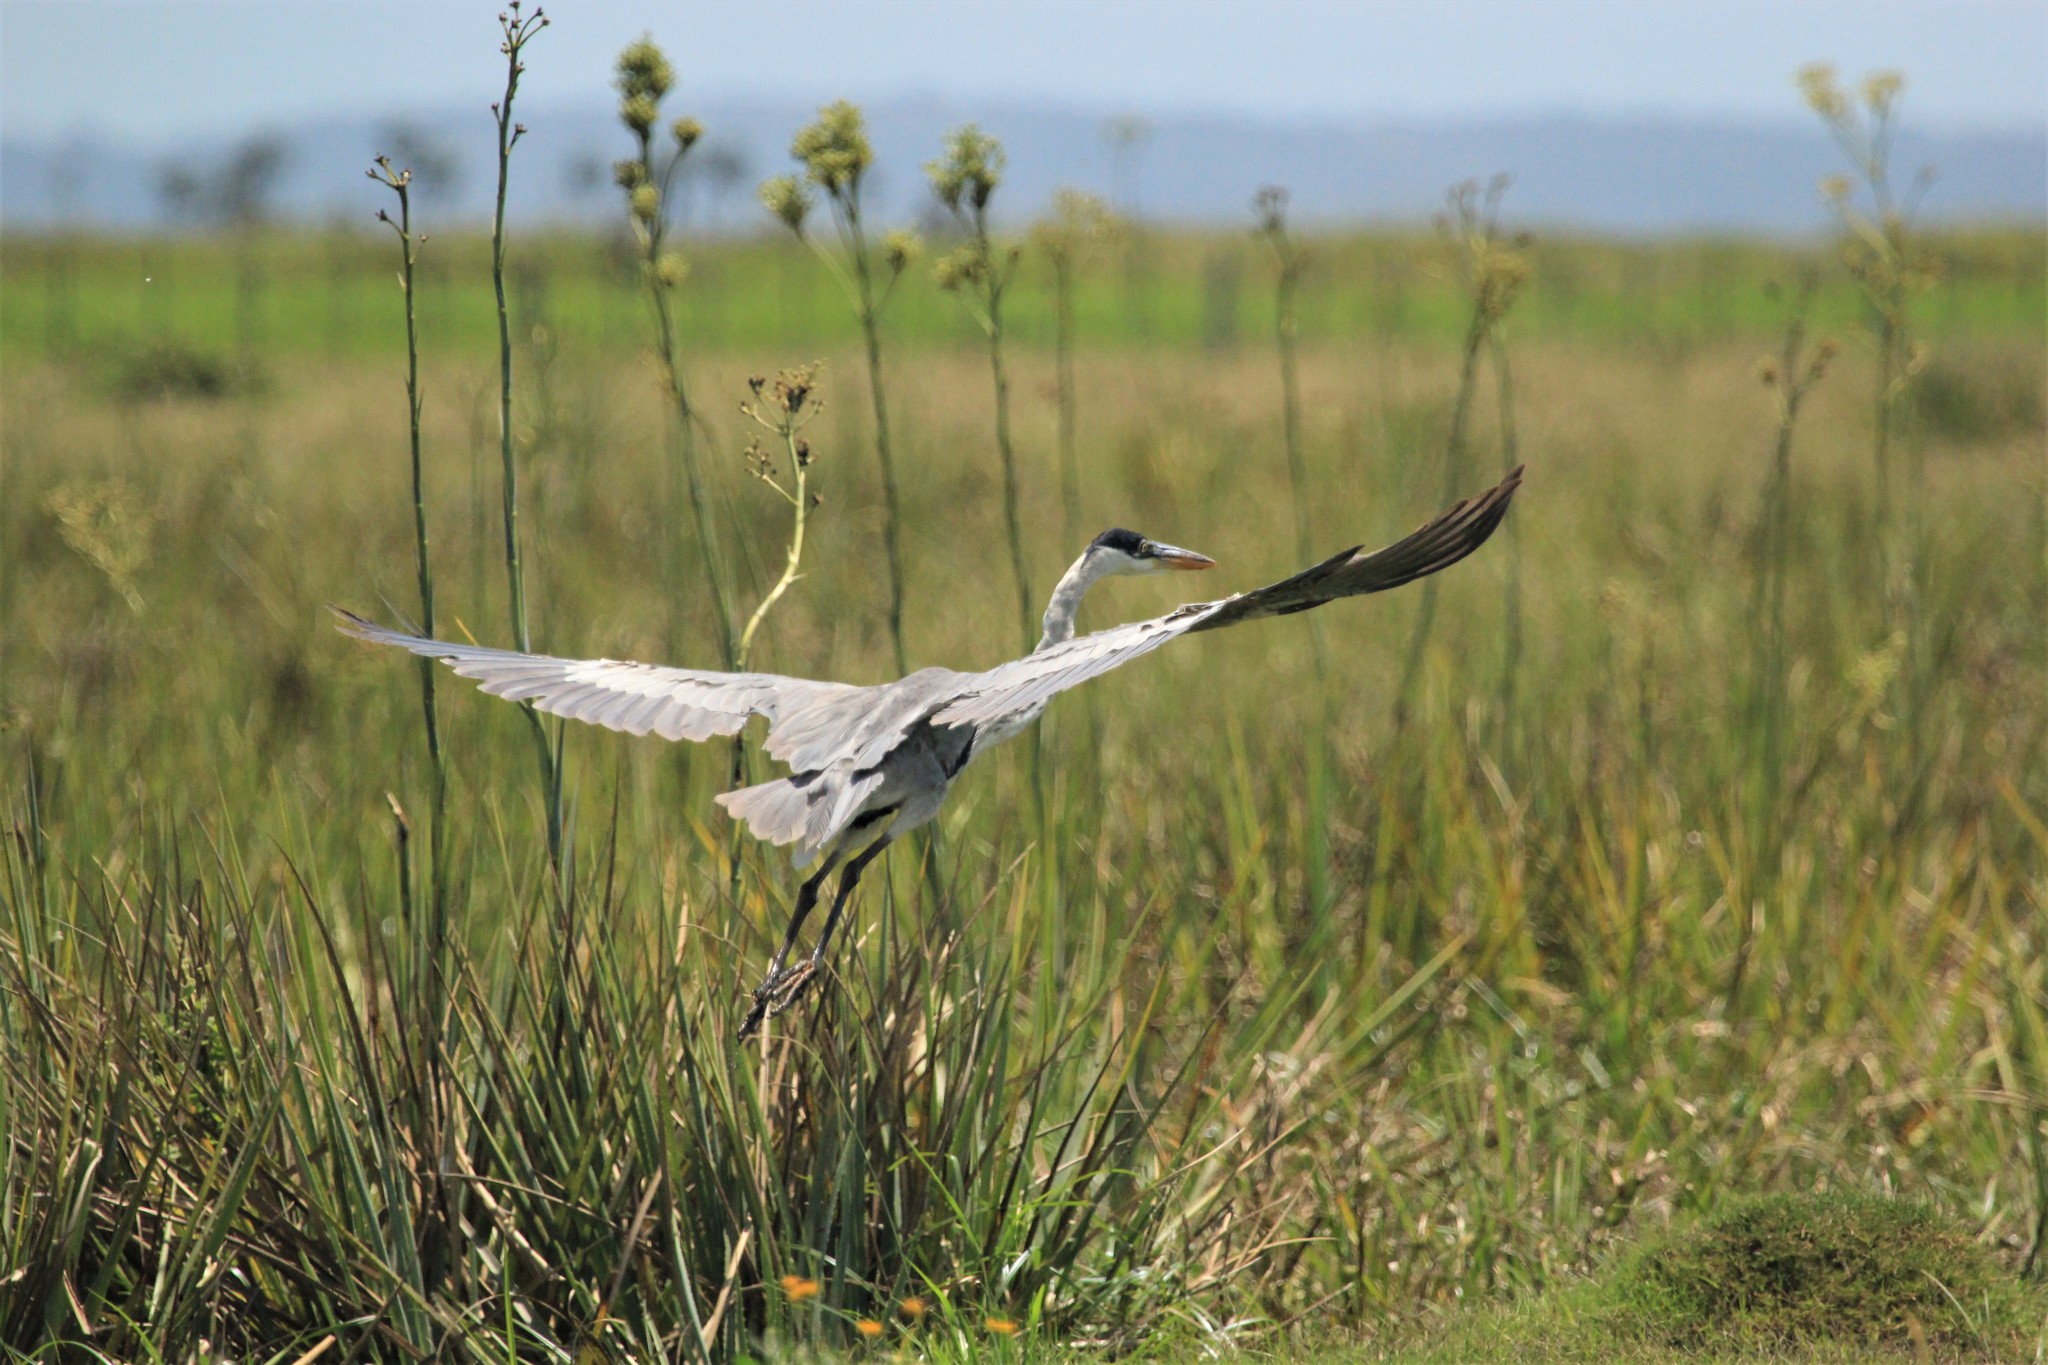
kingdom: Animalia
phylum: Chordata
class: Aves
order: Pelecaniformes
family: Ardeidae
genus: Ardea
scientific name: Ardea cocoi
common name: Cocoi heron
